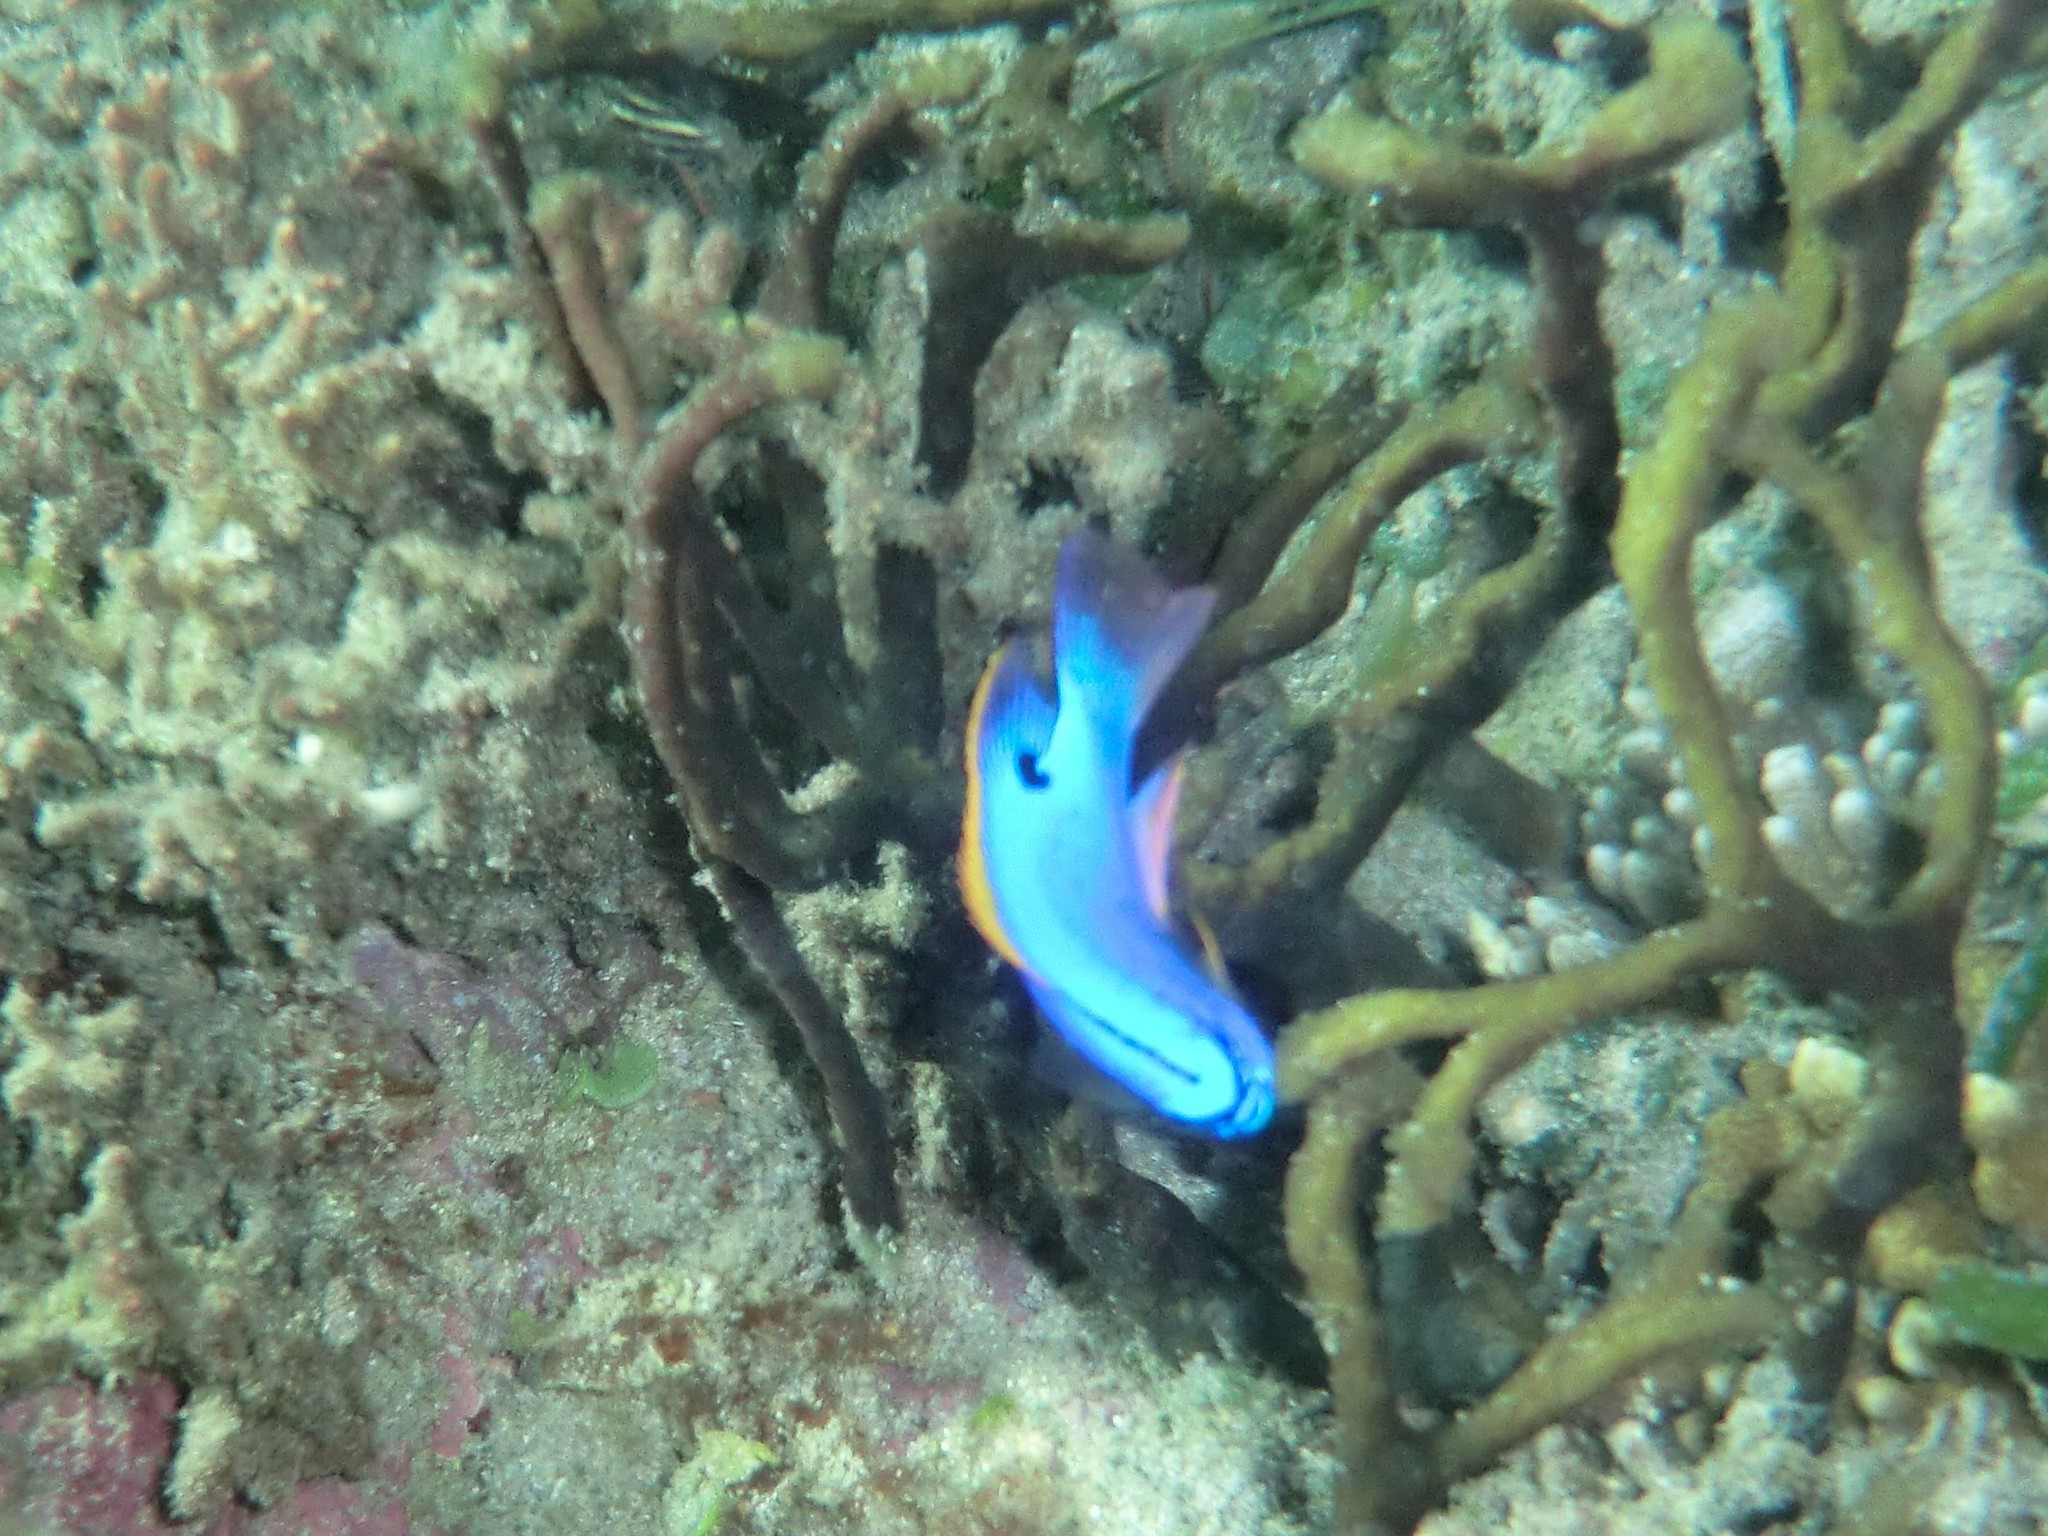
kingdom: Animalia
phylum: Chordata
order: Perciformes
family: Pomacentridae
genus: Chrysiptera
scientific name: Chrysiptera taupou
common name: Fiji damsel
